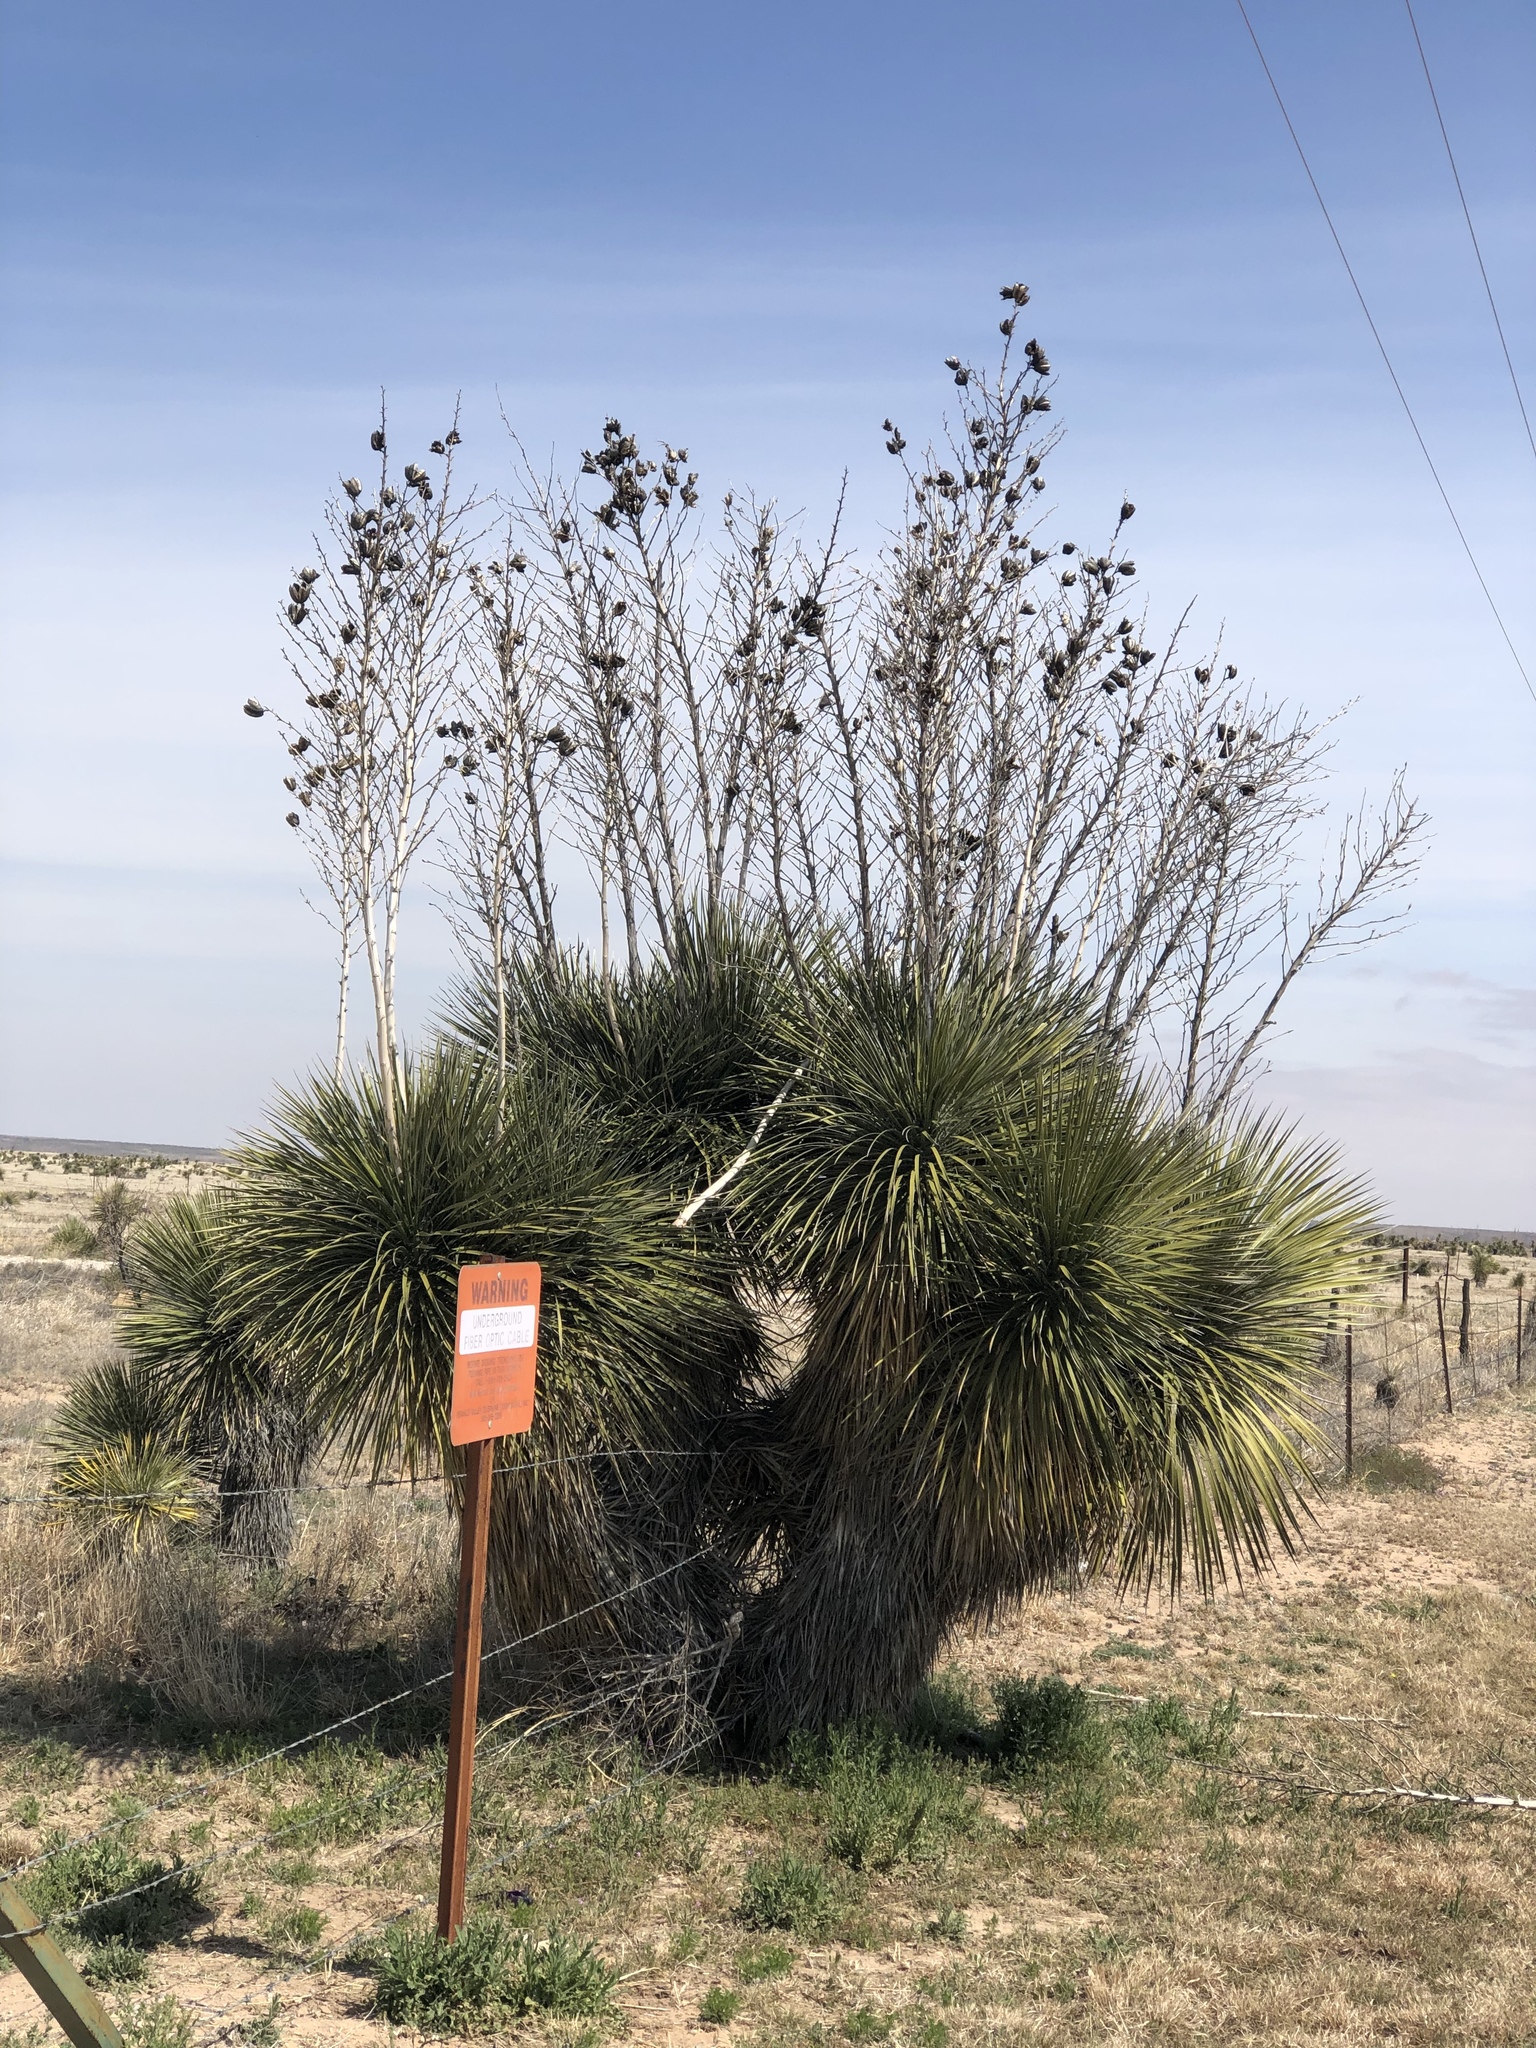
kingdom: Plantae
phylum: Tracheophyta
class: Liliopsida
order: Asparagales
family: Asparagaceae
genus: Yucca
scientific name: Yucca elata
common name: Palmella
